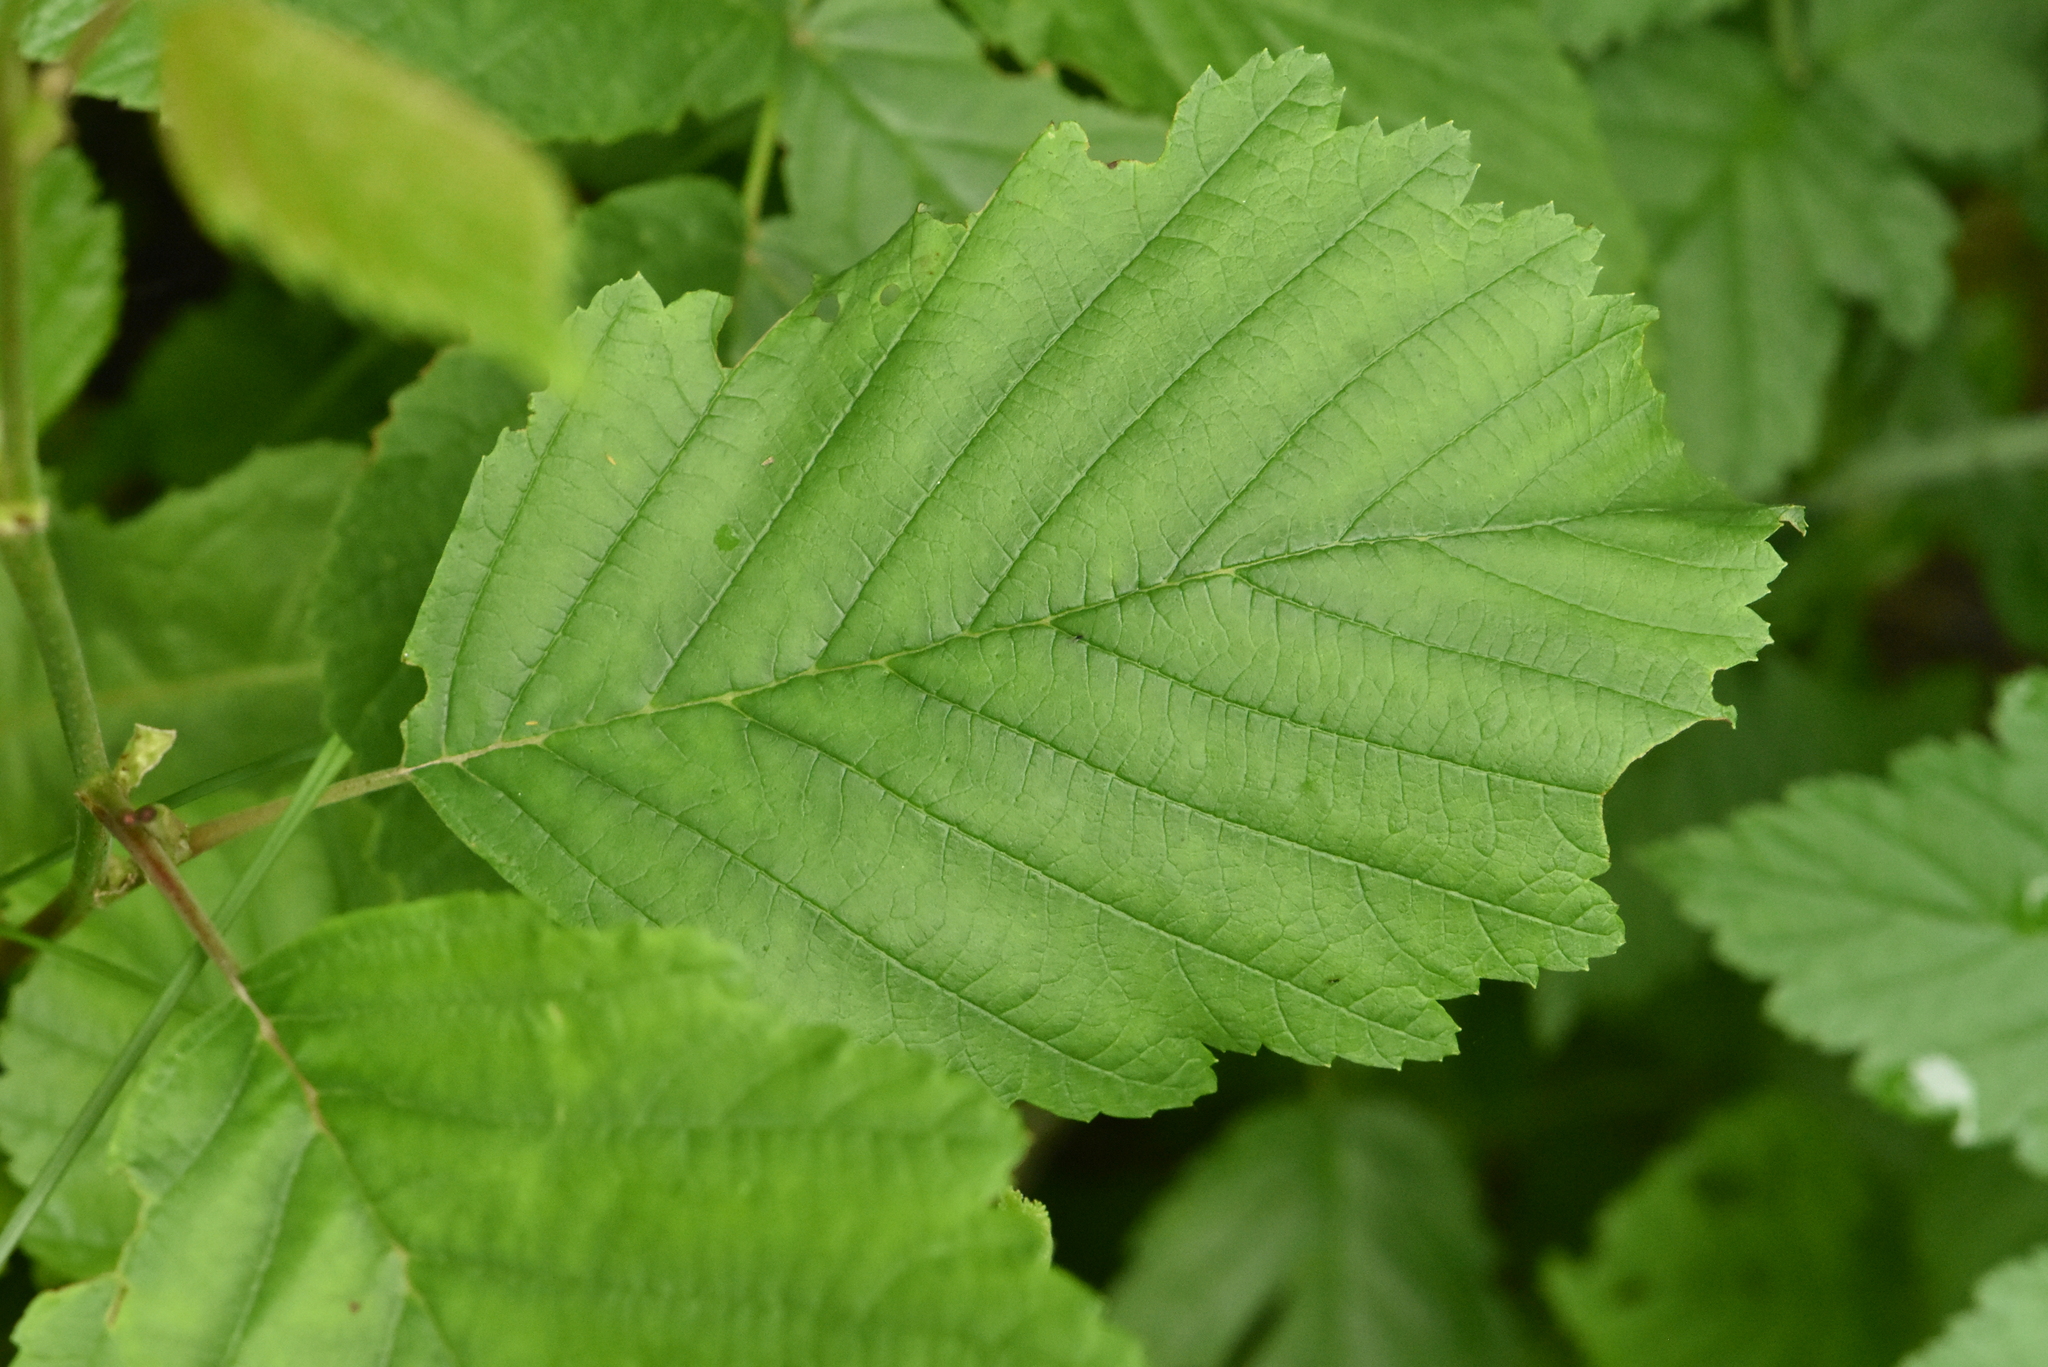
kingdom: Plantae
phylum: Tracheophyta
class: Magnoliopsida
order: Fagales
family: Betulaceae
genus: Alnus
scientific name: Alnus incana
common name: Grey alder
